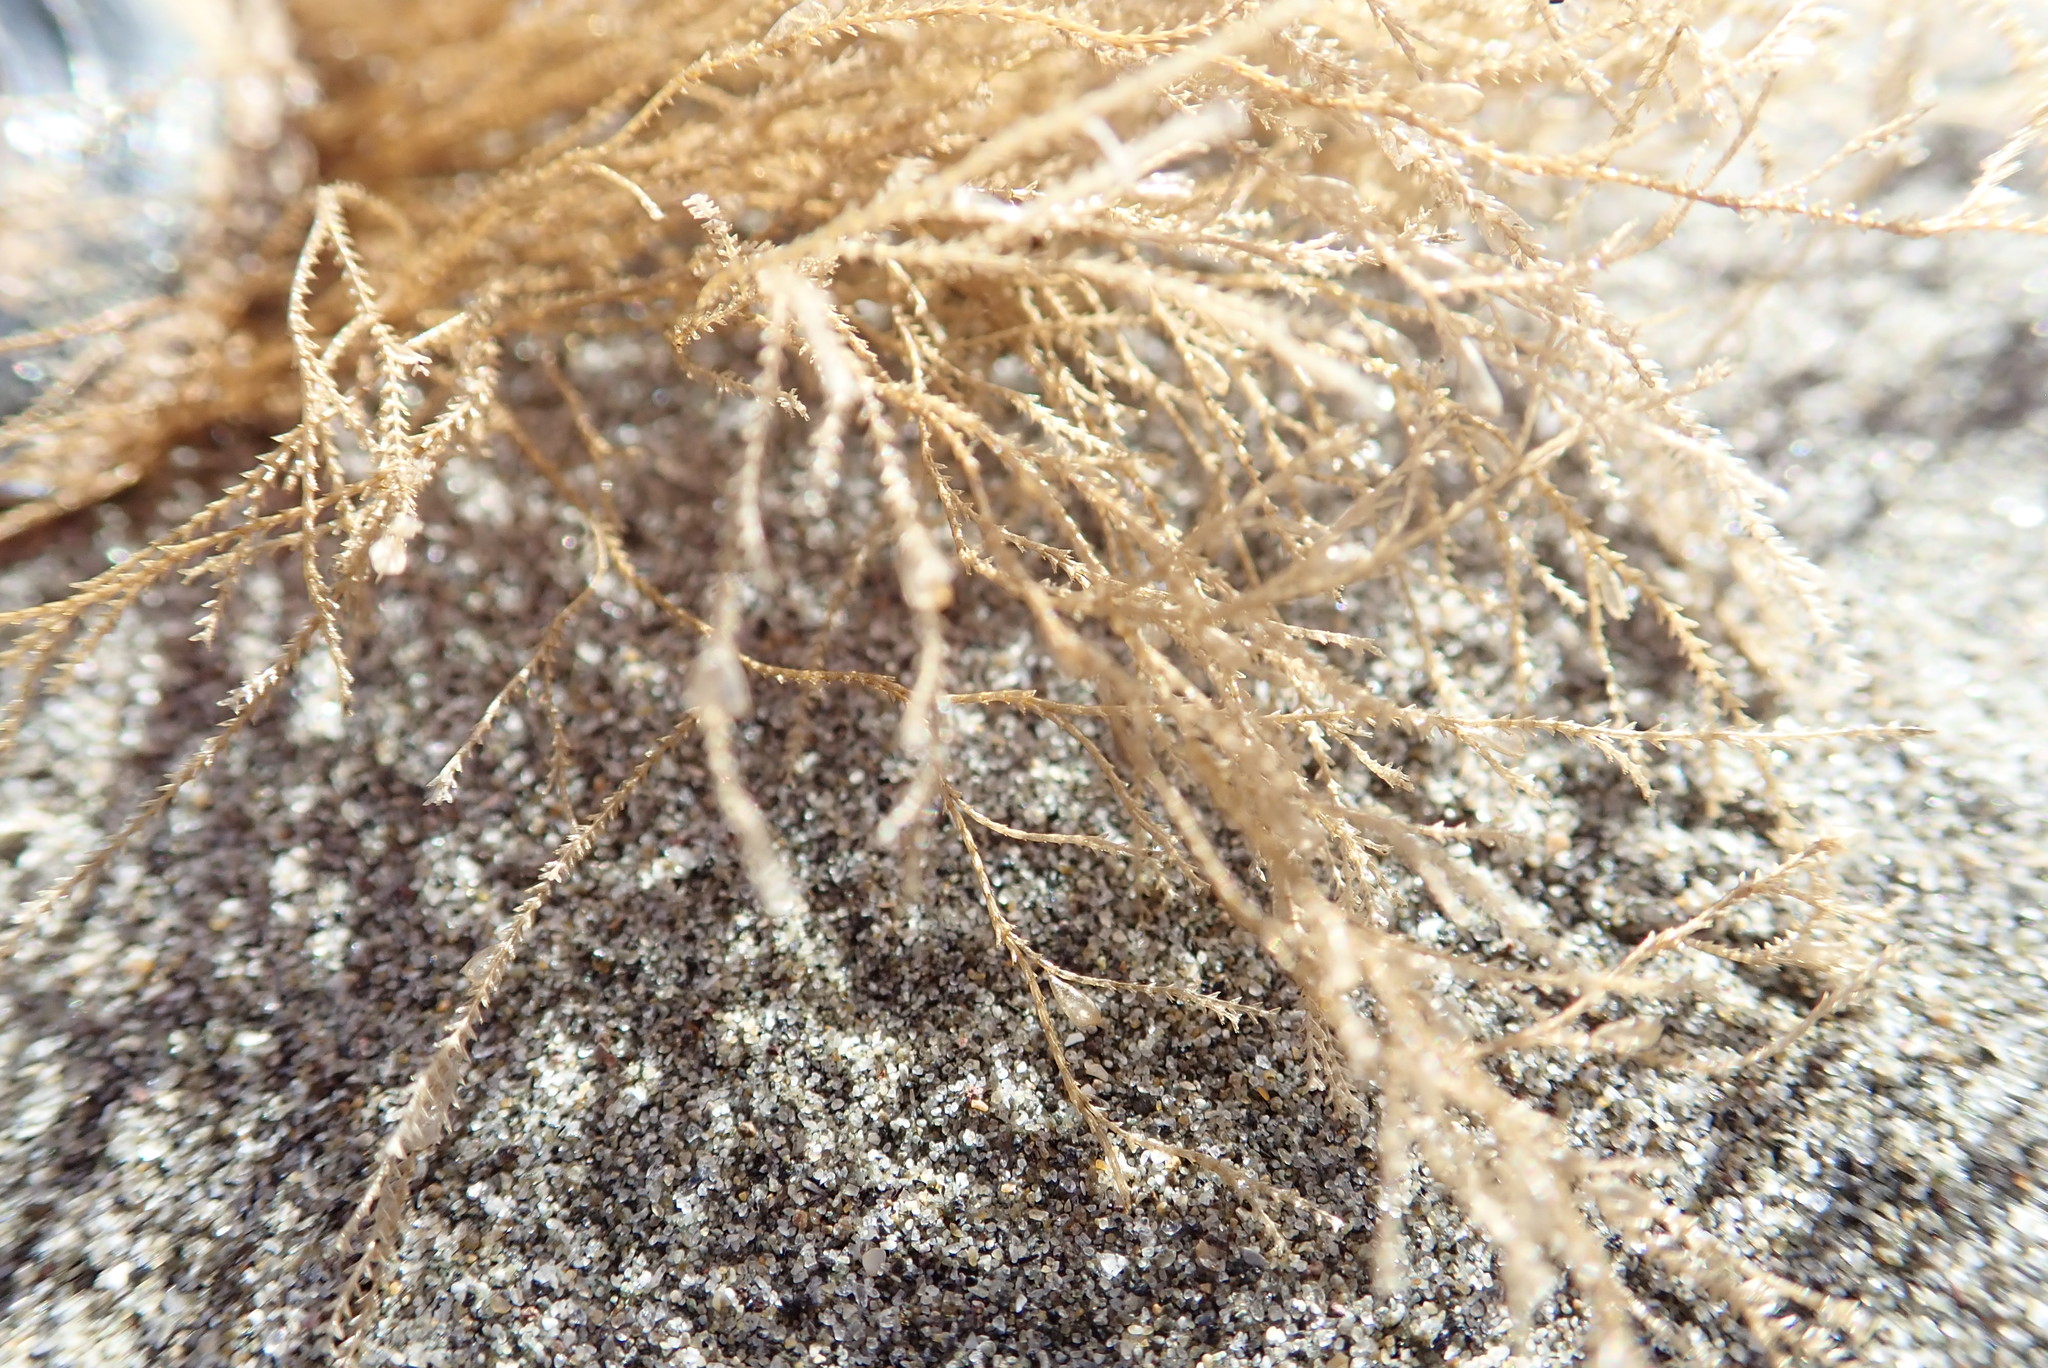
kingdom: Animalia
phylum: Cnidaria
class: Hydrozoa
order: Leptothecata
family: Sertulariidae
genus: Amphisbetia
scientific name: Amphisbetia bispinosa
